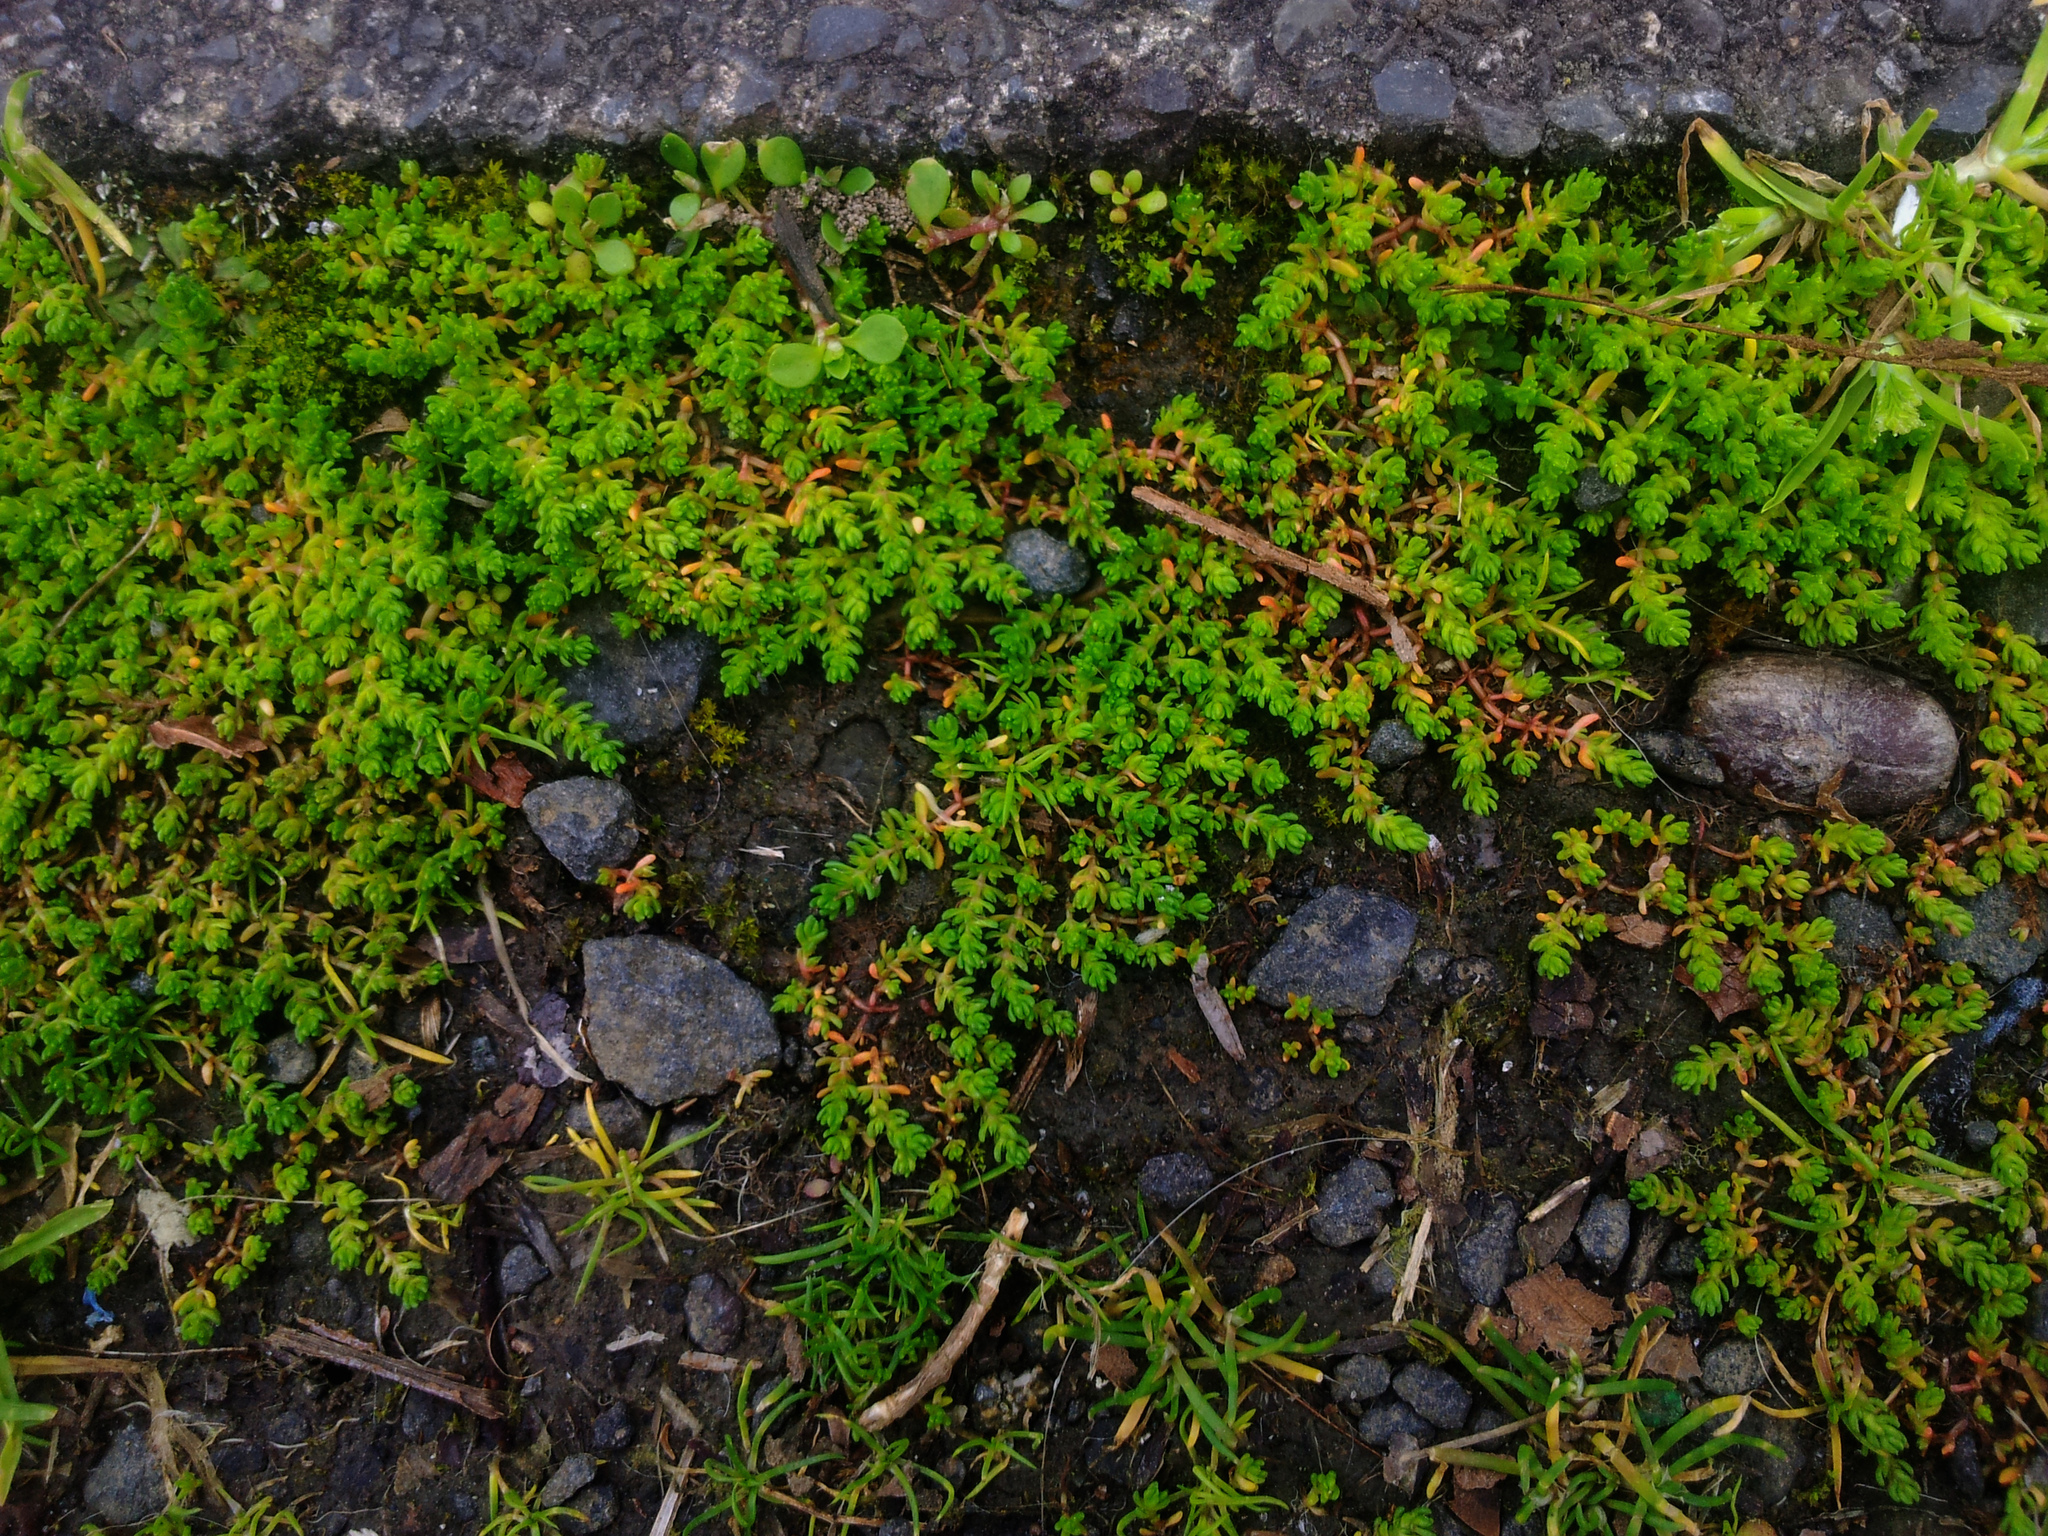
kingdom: Plantae
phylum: Tracheophyta
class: Magnoliopsida
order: Saxifragales
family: Crassulaceae
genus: Crassula
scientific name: Crassula alata
